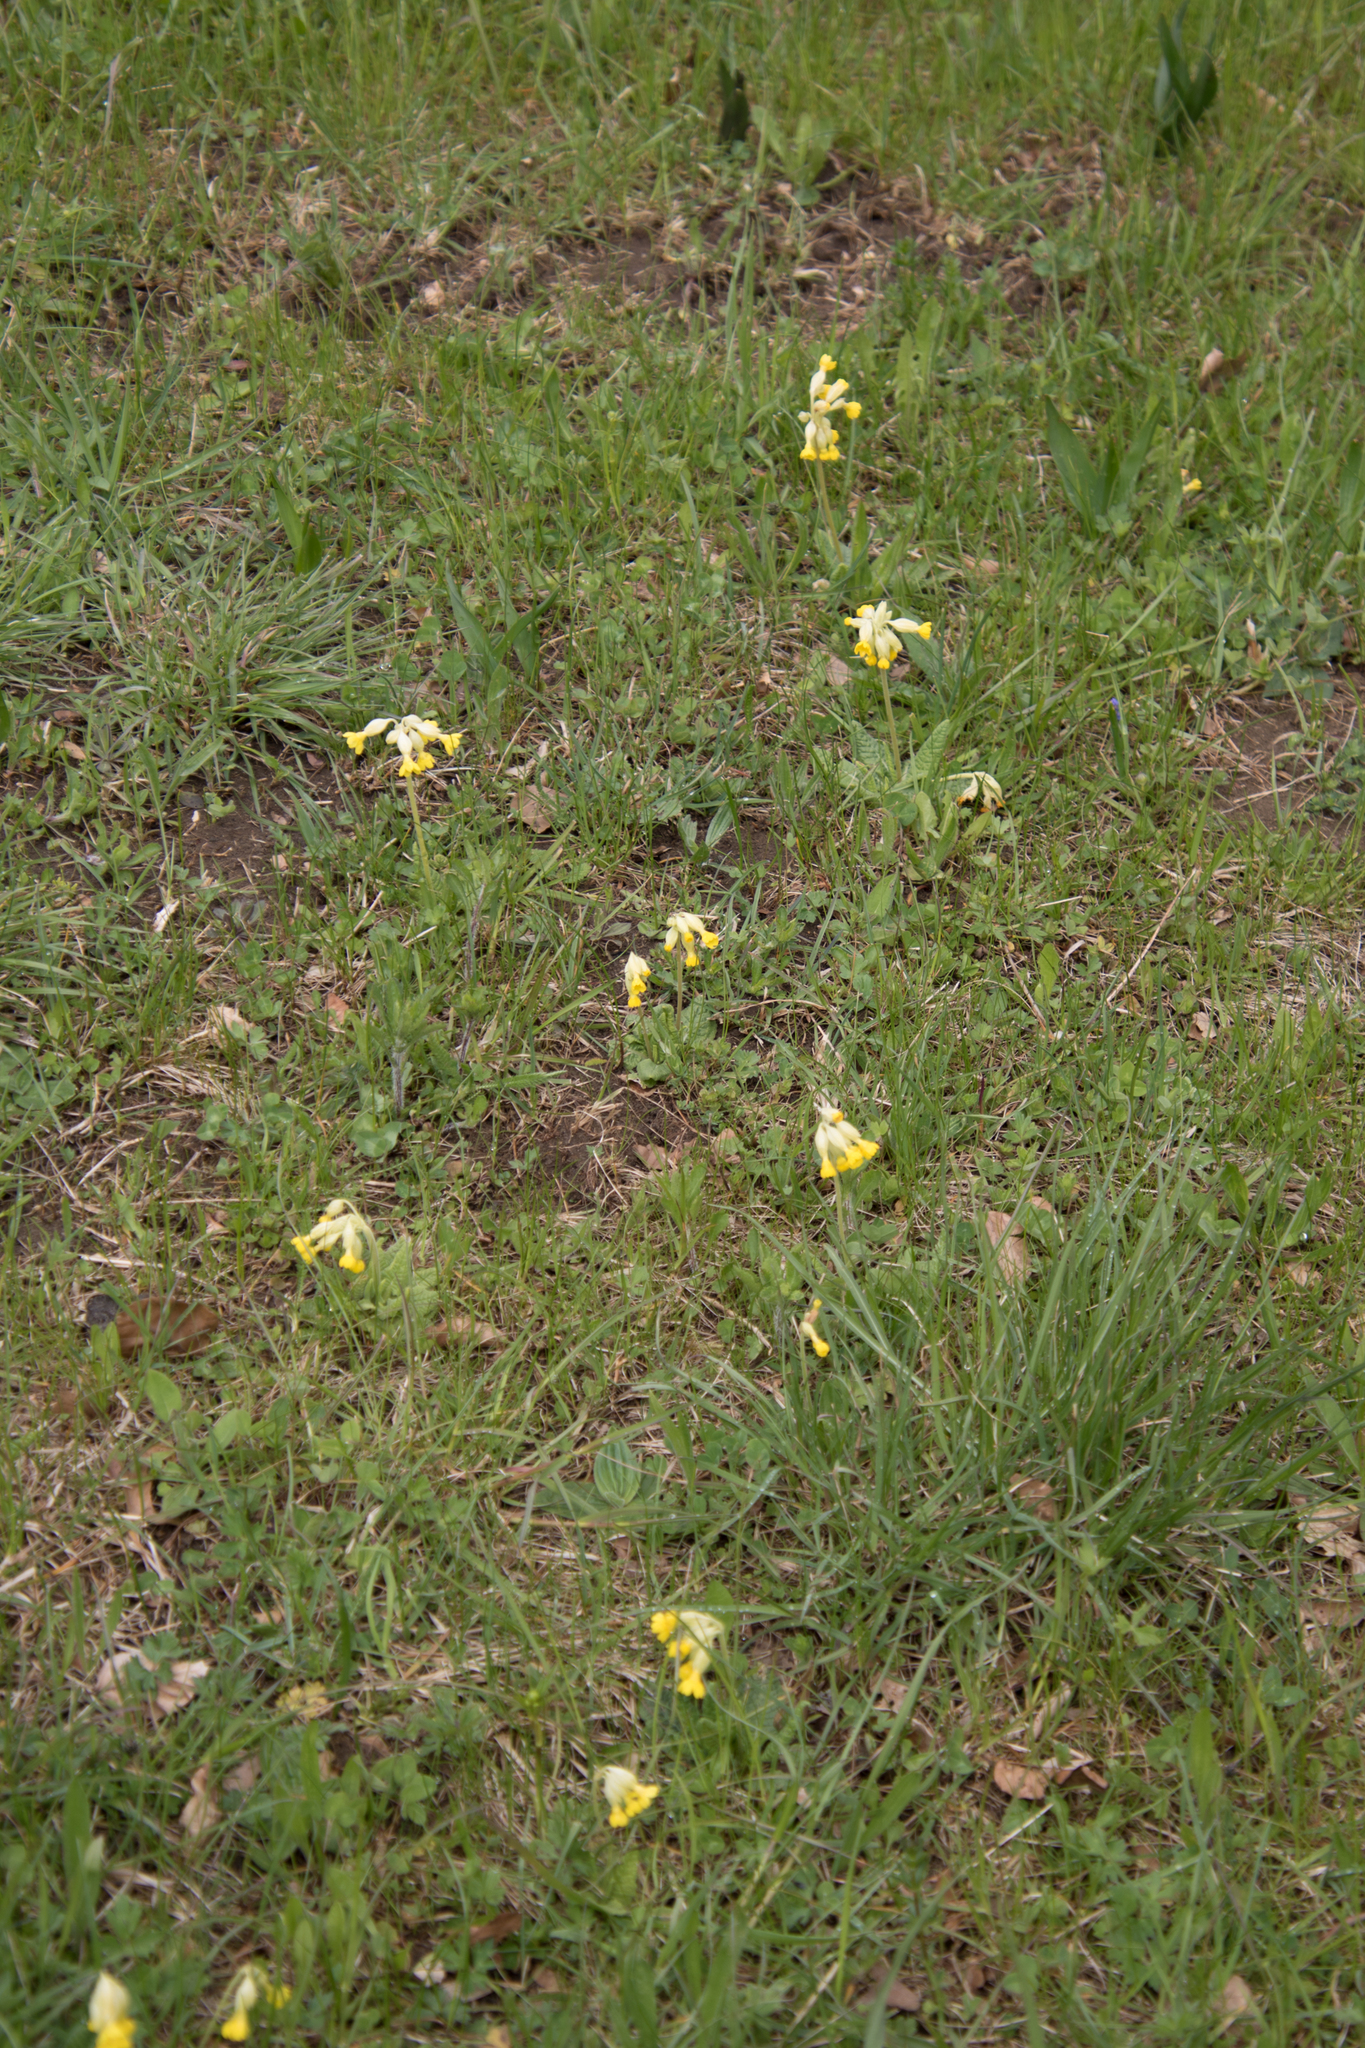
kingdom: Plantae
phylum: Tracheophyta
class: Magnoliopsida
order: Ericales
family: Primulaceae
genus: Primula
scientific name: Primula veris
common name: Cowslip
